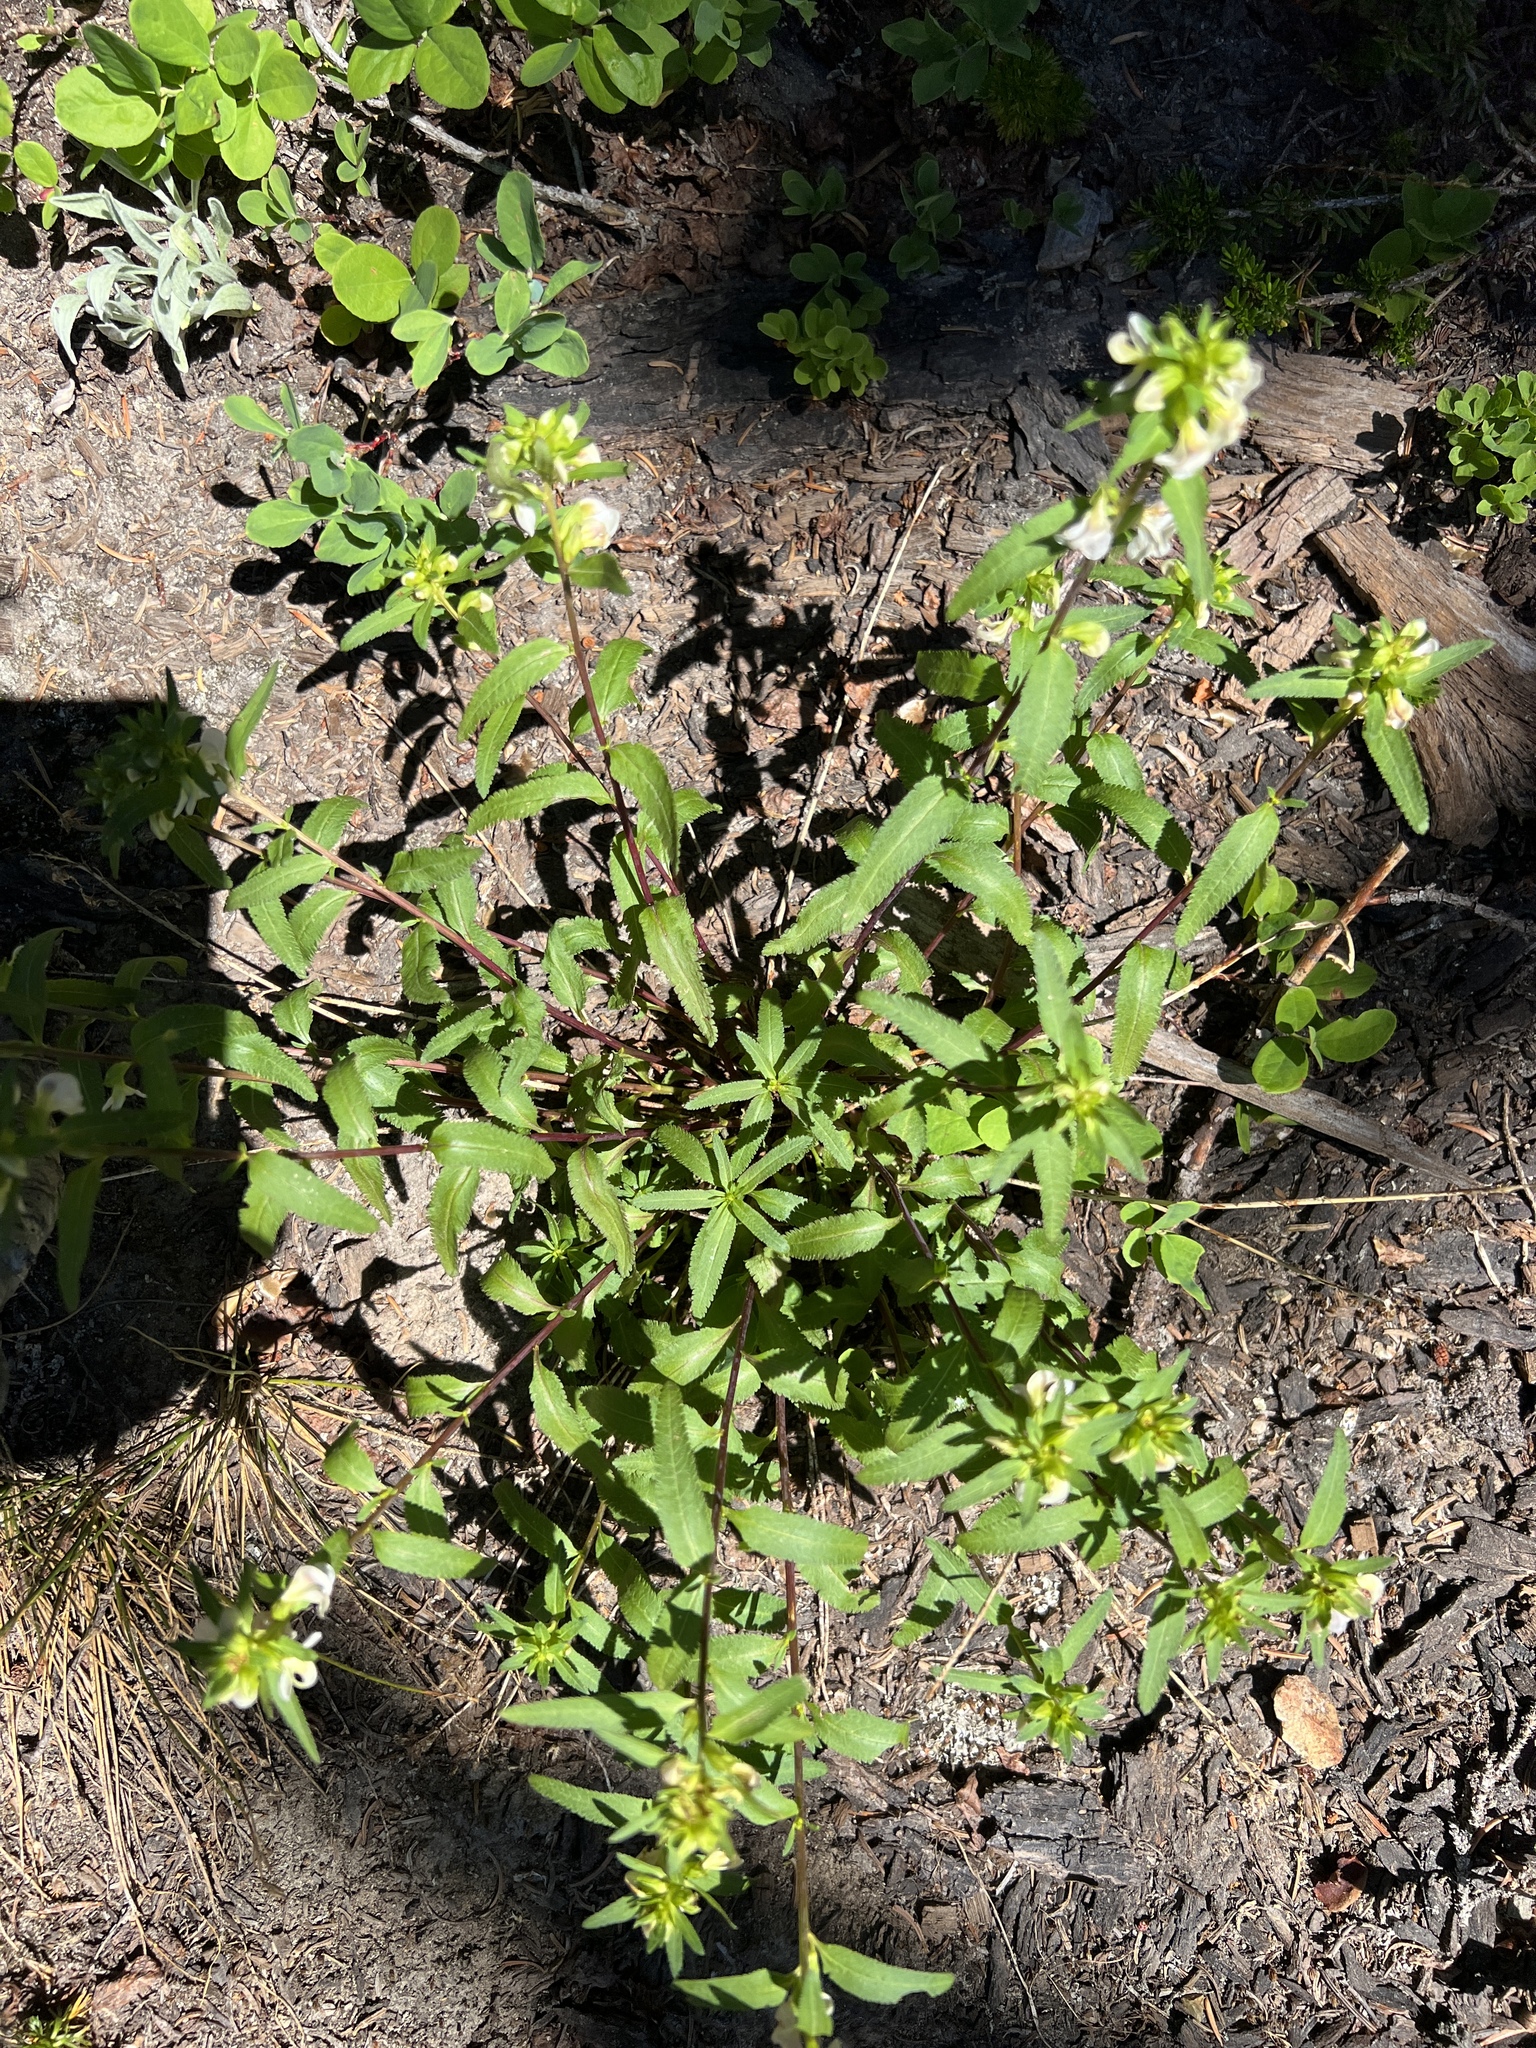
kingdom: Plantae
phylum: Tracheophyta
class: Magnoliopsida
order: Lamiales
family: Orobanchaceae
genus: Pedicularis
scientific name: Pedicularis racemosa
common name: Leafy lousewort
